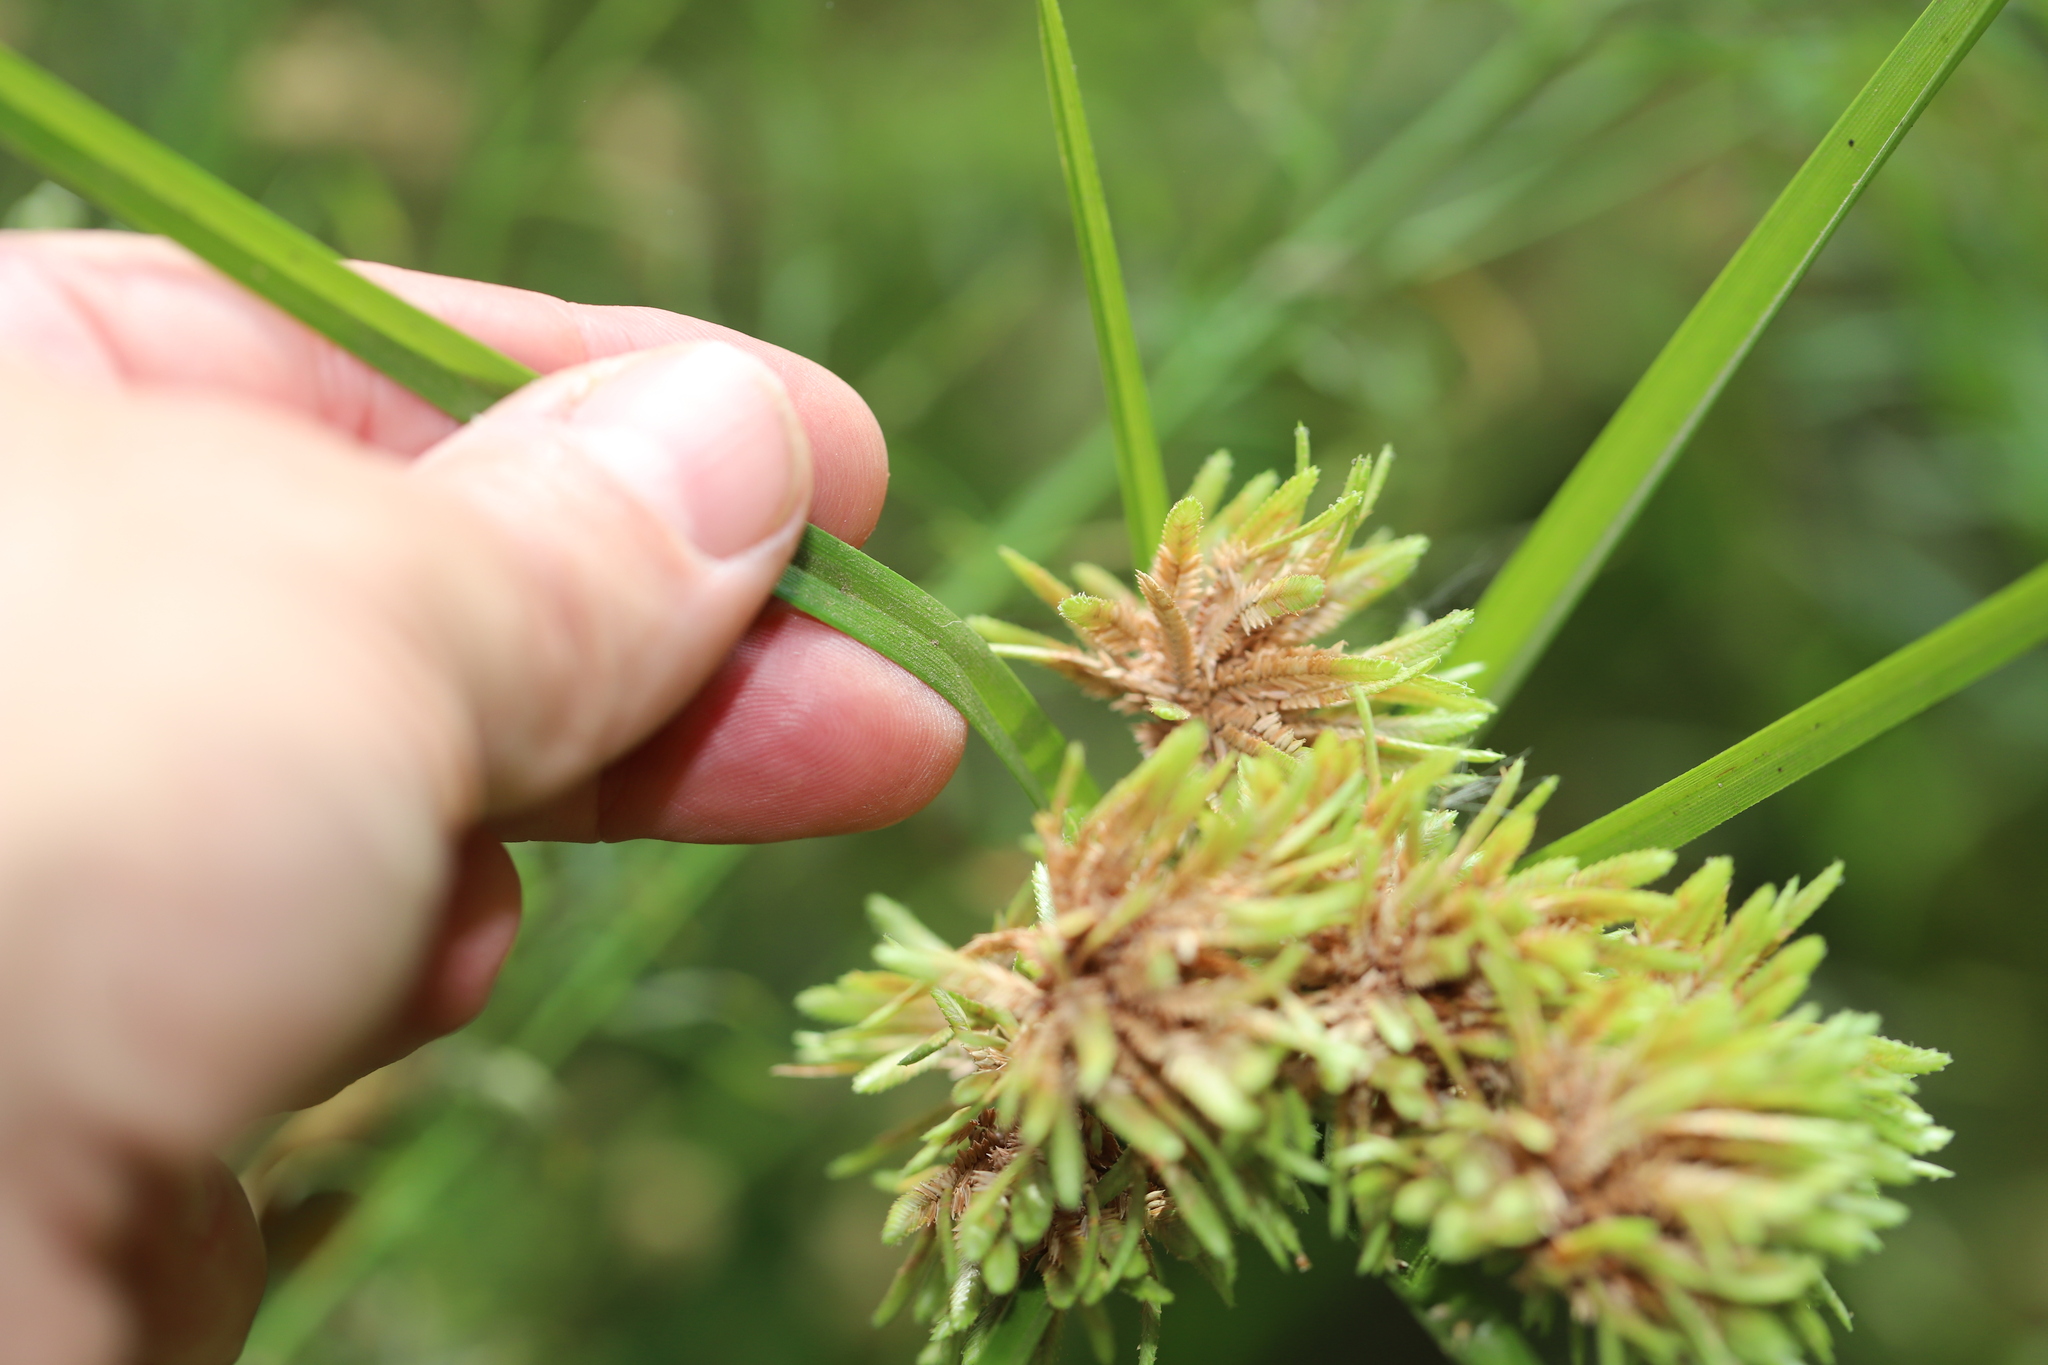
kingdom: Plantae
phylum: Tracheophyta
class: Liliopsida
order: Poales
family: Cyperaceae
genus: Cyperus
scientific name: Cyperus eragrostis
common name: Tall flatsedge
